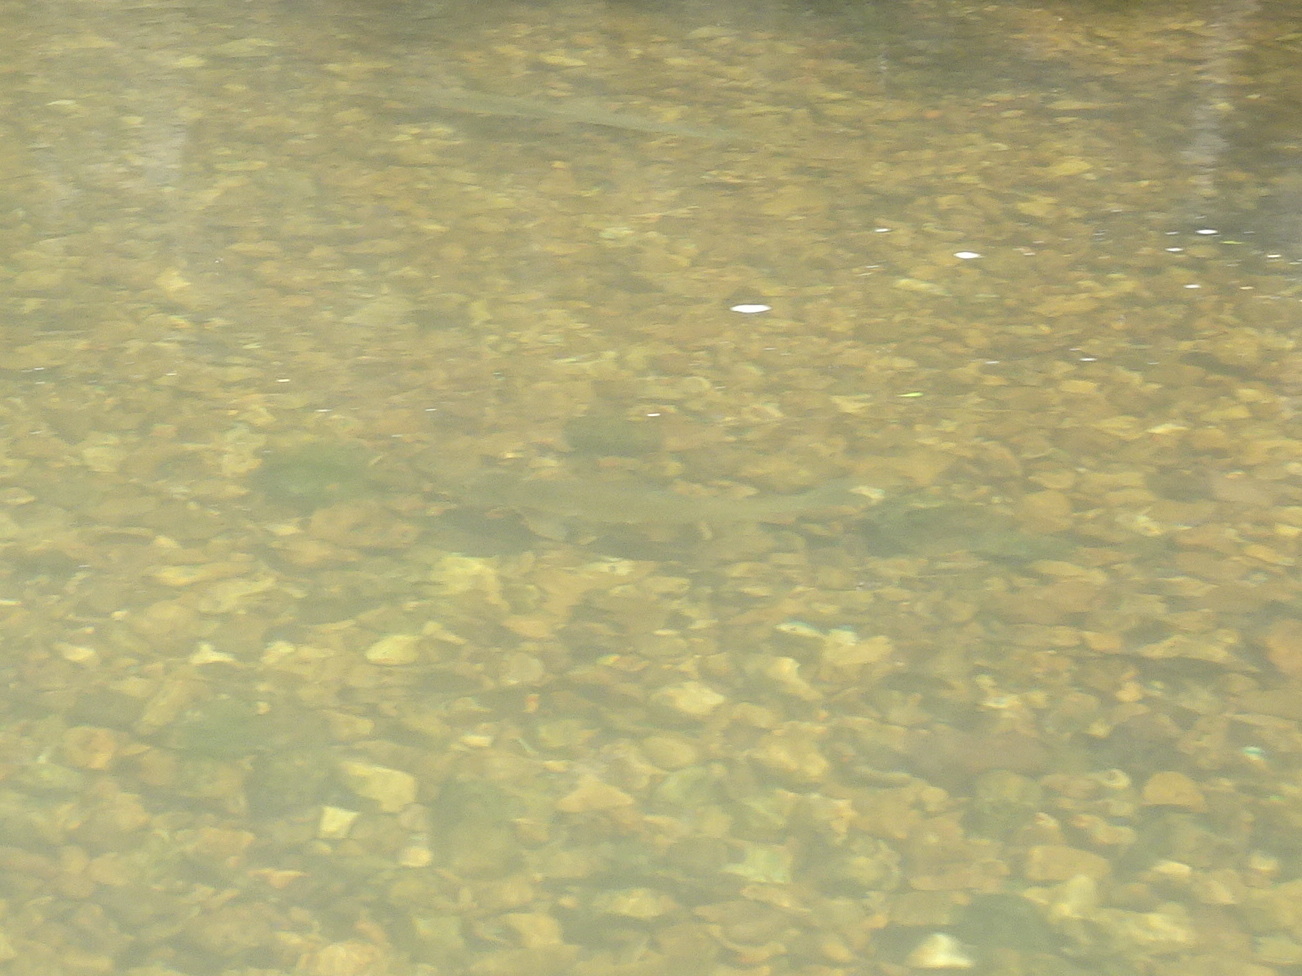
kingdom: Animalia
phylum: Chordata
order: Lepisosteiformes
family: Lepisosteidae
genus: Lepisosteus
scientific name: Lepisosteus osseus
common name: Longnose gar
